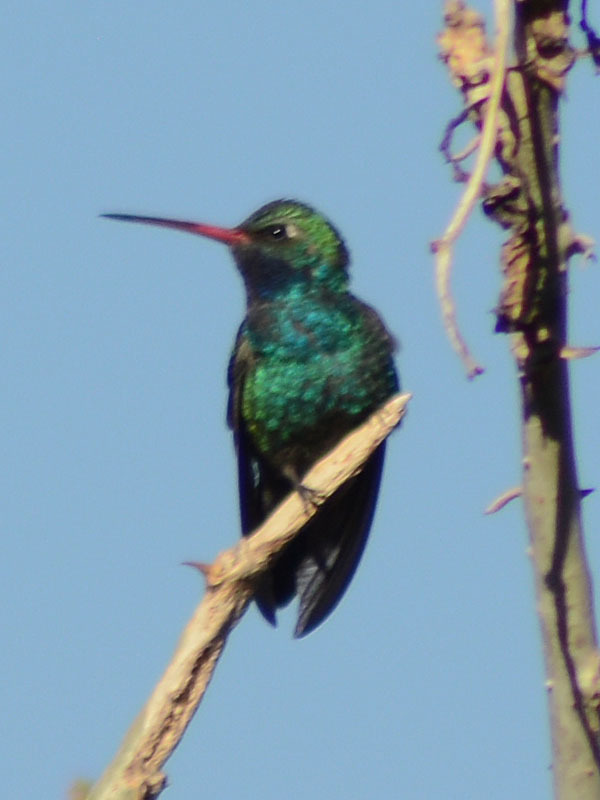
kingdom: Animalia
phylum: Chordata
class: Aves
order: Apodiformes
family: Trochilidae
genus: Cynanthus
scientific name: Cynanthus latirostris
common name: Broad-billed hummingbird
